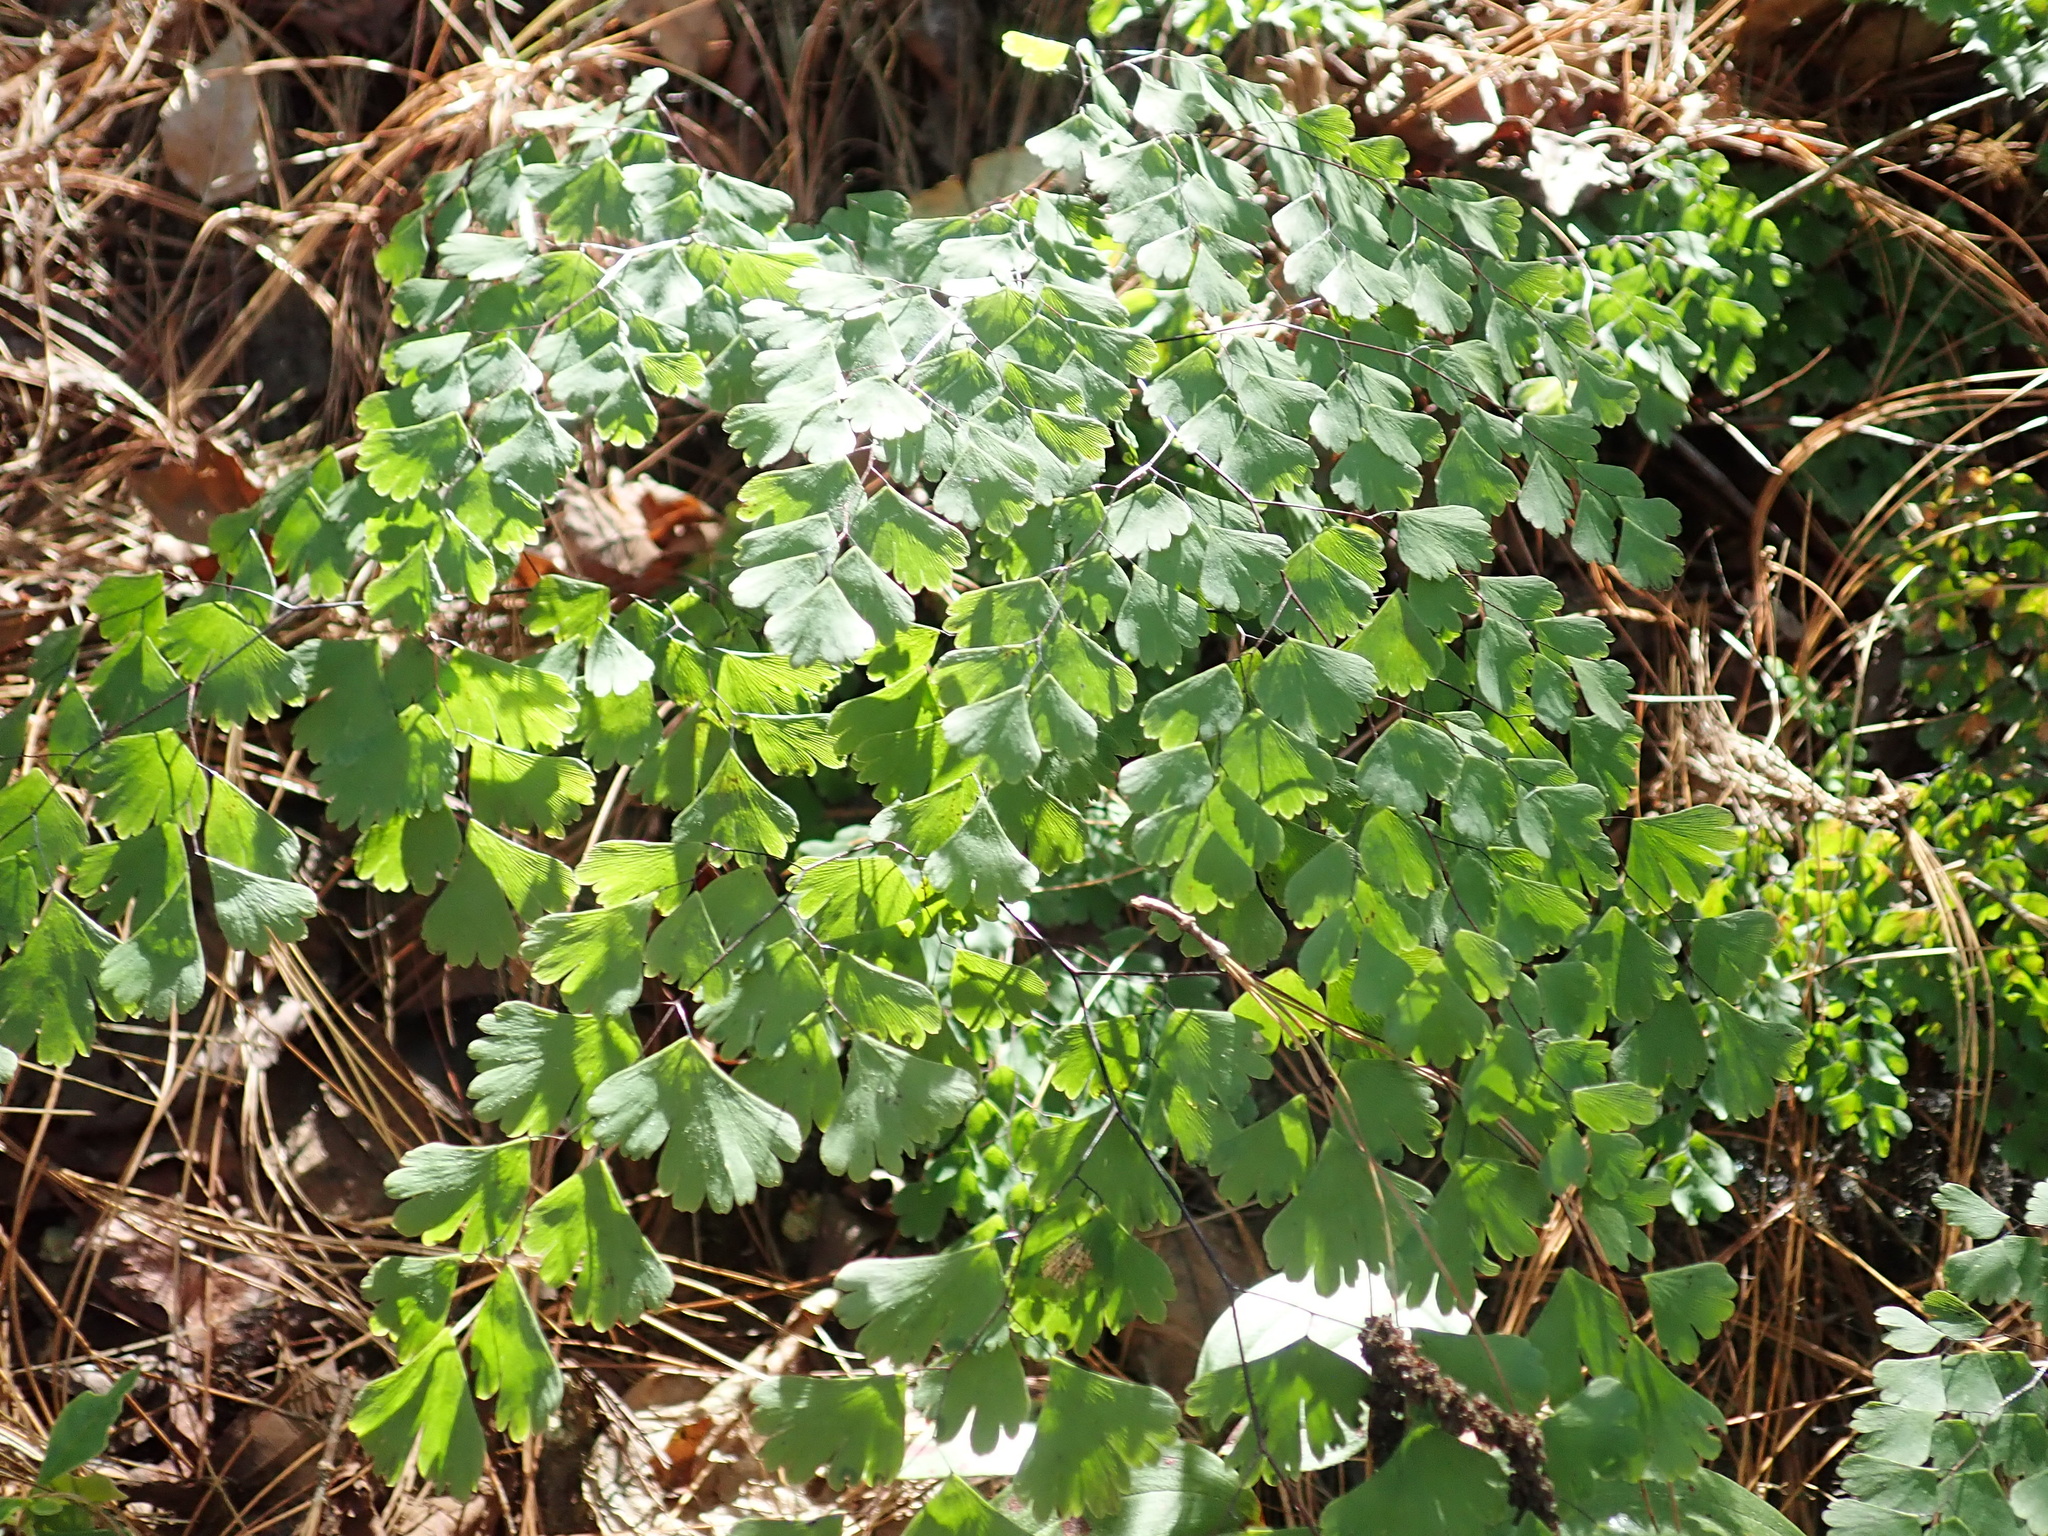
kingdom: Plantae
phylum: Tracheophyta
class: Polypodiopsida
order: Polypodiales
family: Pteridaceae
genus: Adiantum
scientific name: Adiantum andicola
